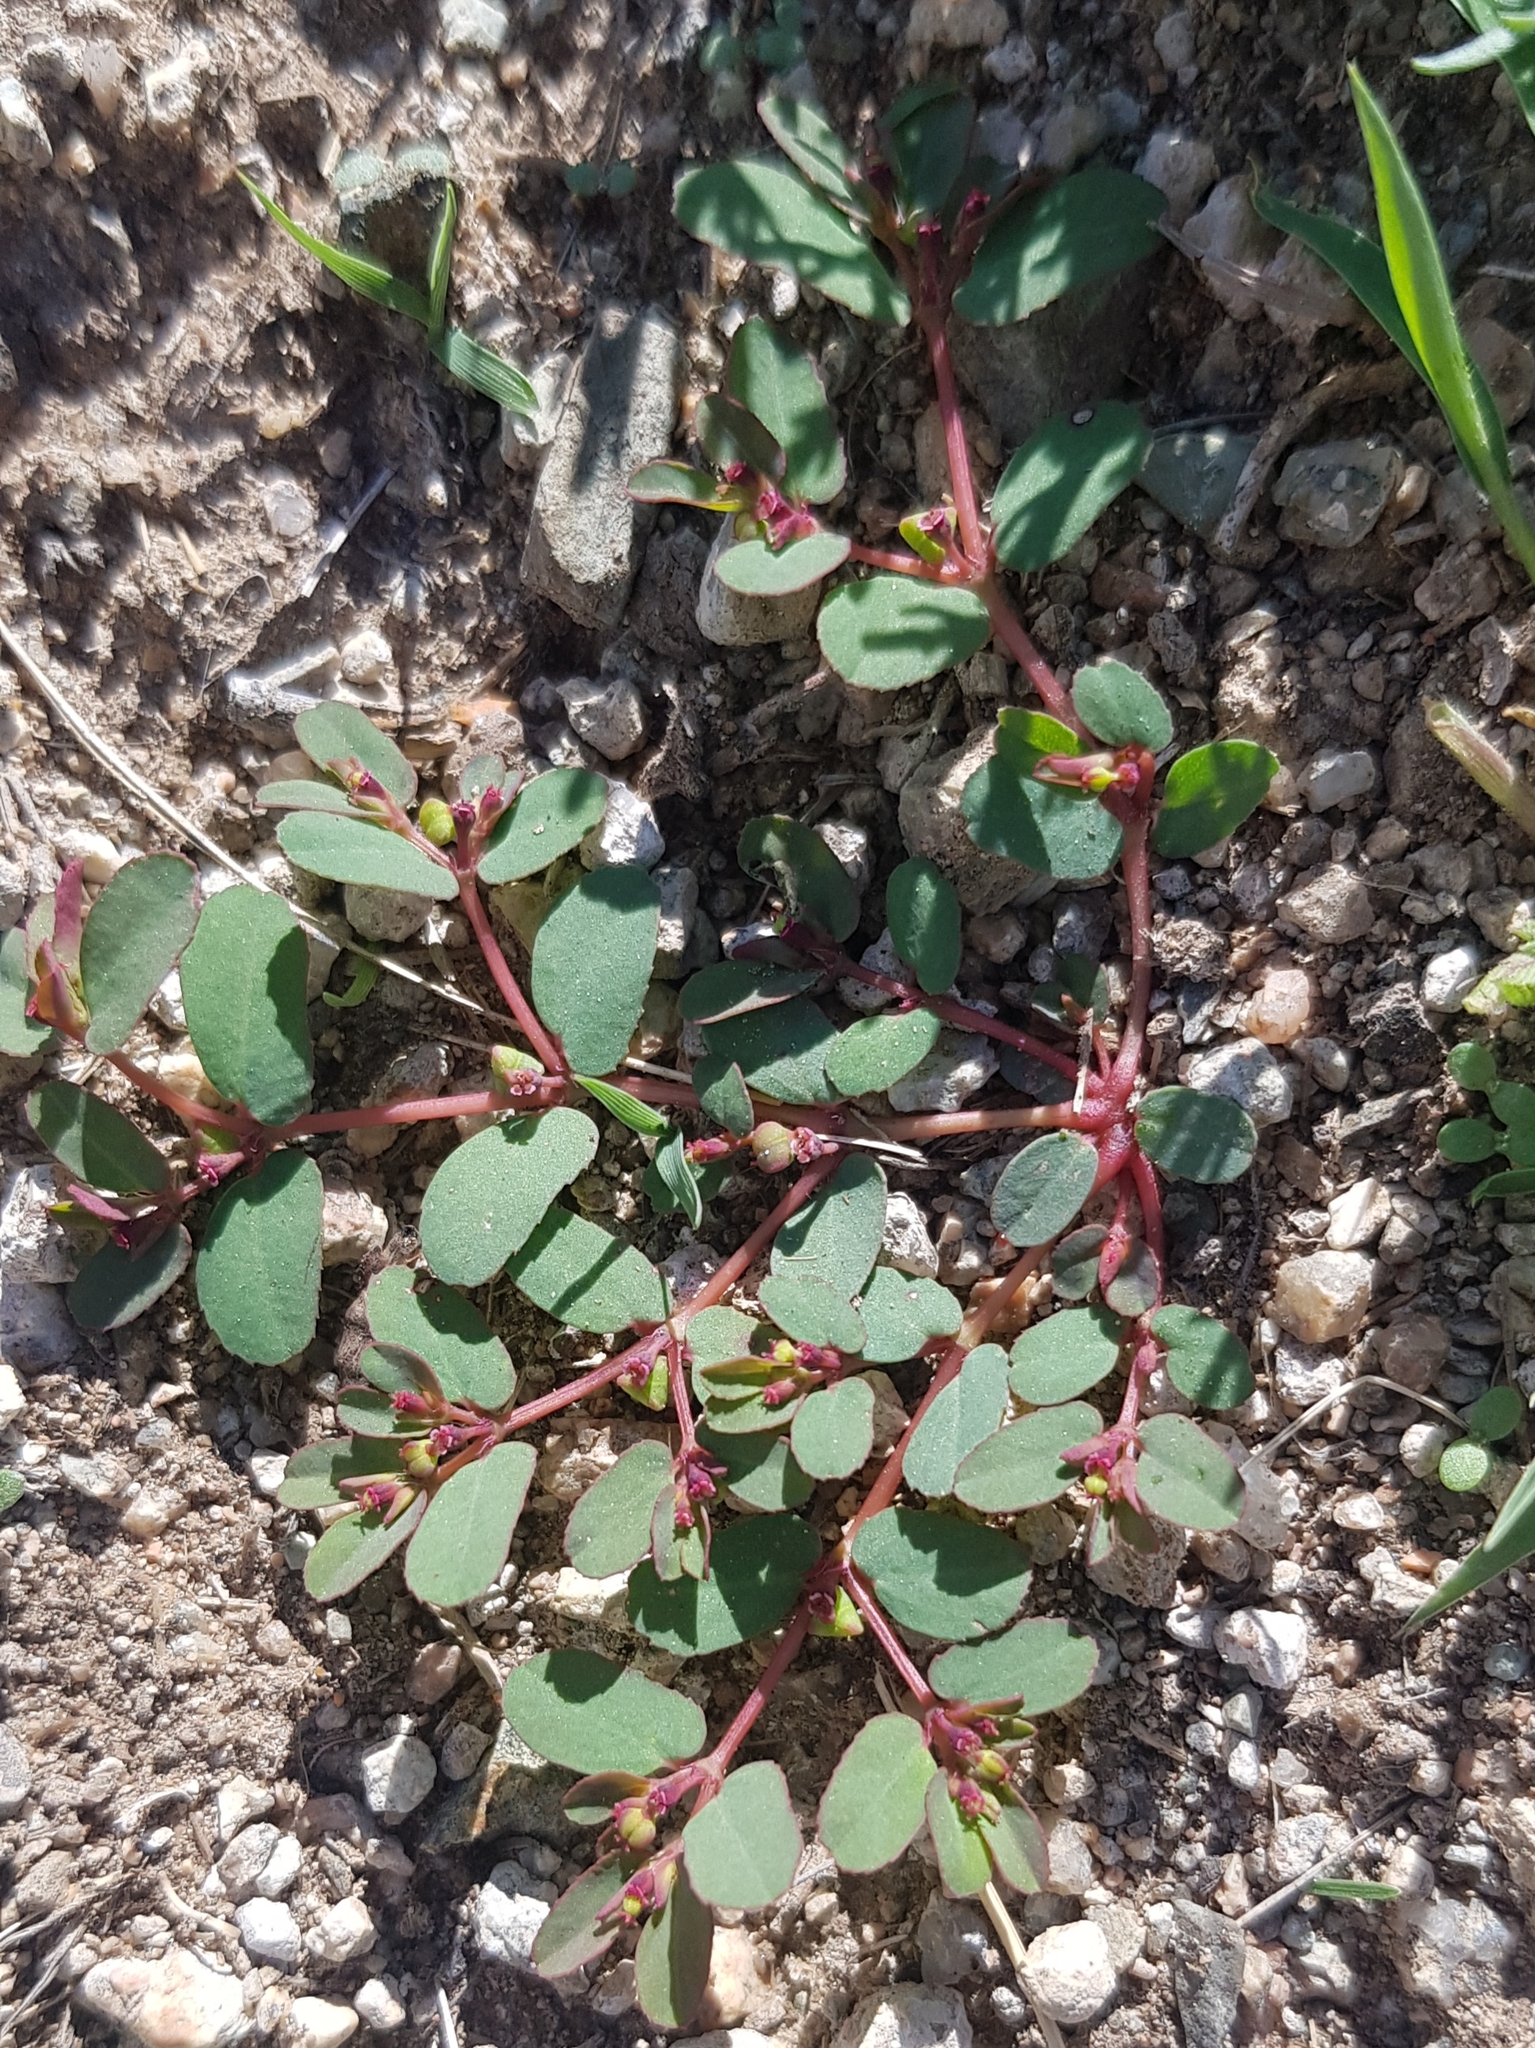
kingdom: Plantae
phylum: Tracheophyta
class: Magnoliopsida
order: Malpighiales
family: Euphorbiaceae
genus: Euphorbia
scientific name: Euphorbia humifusa
